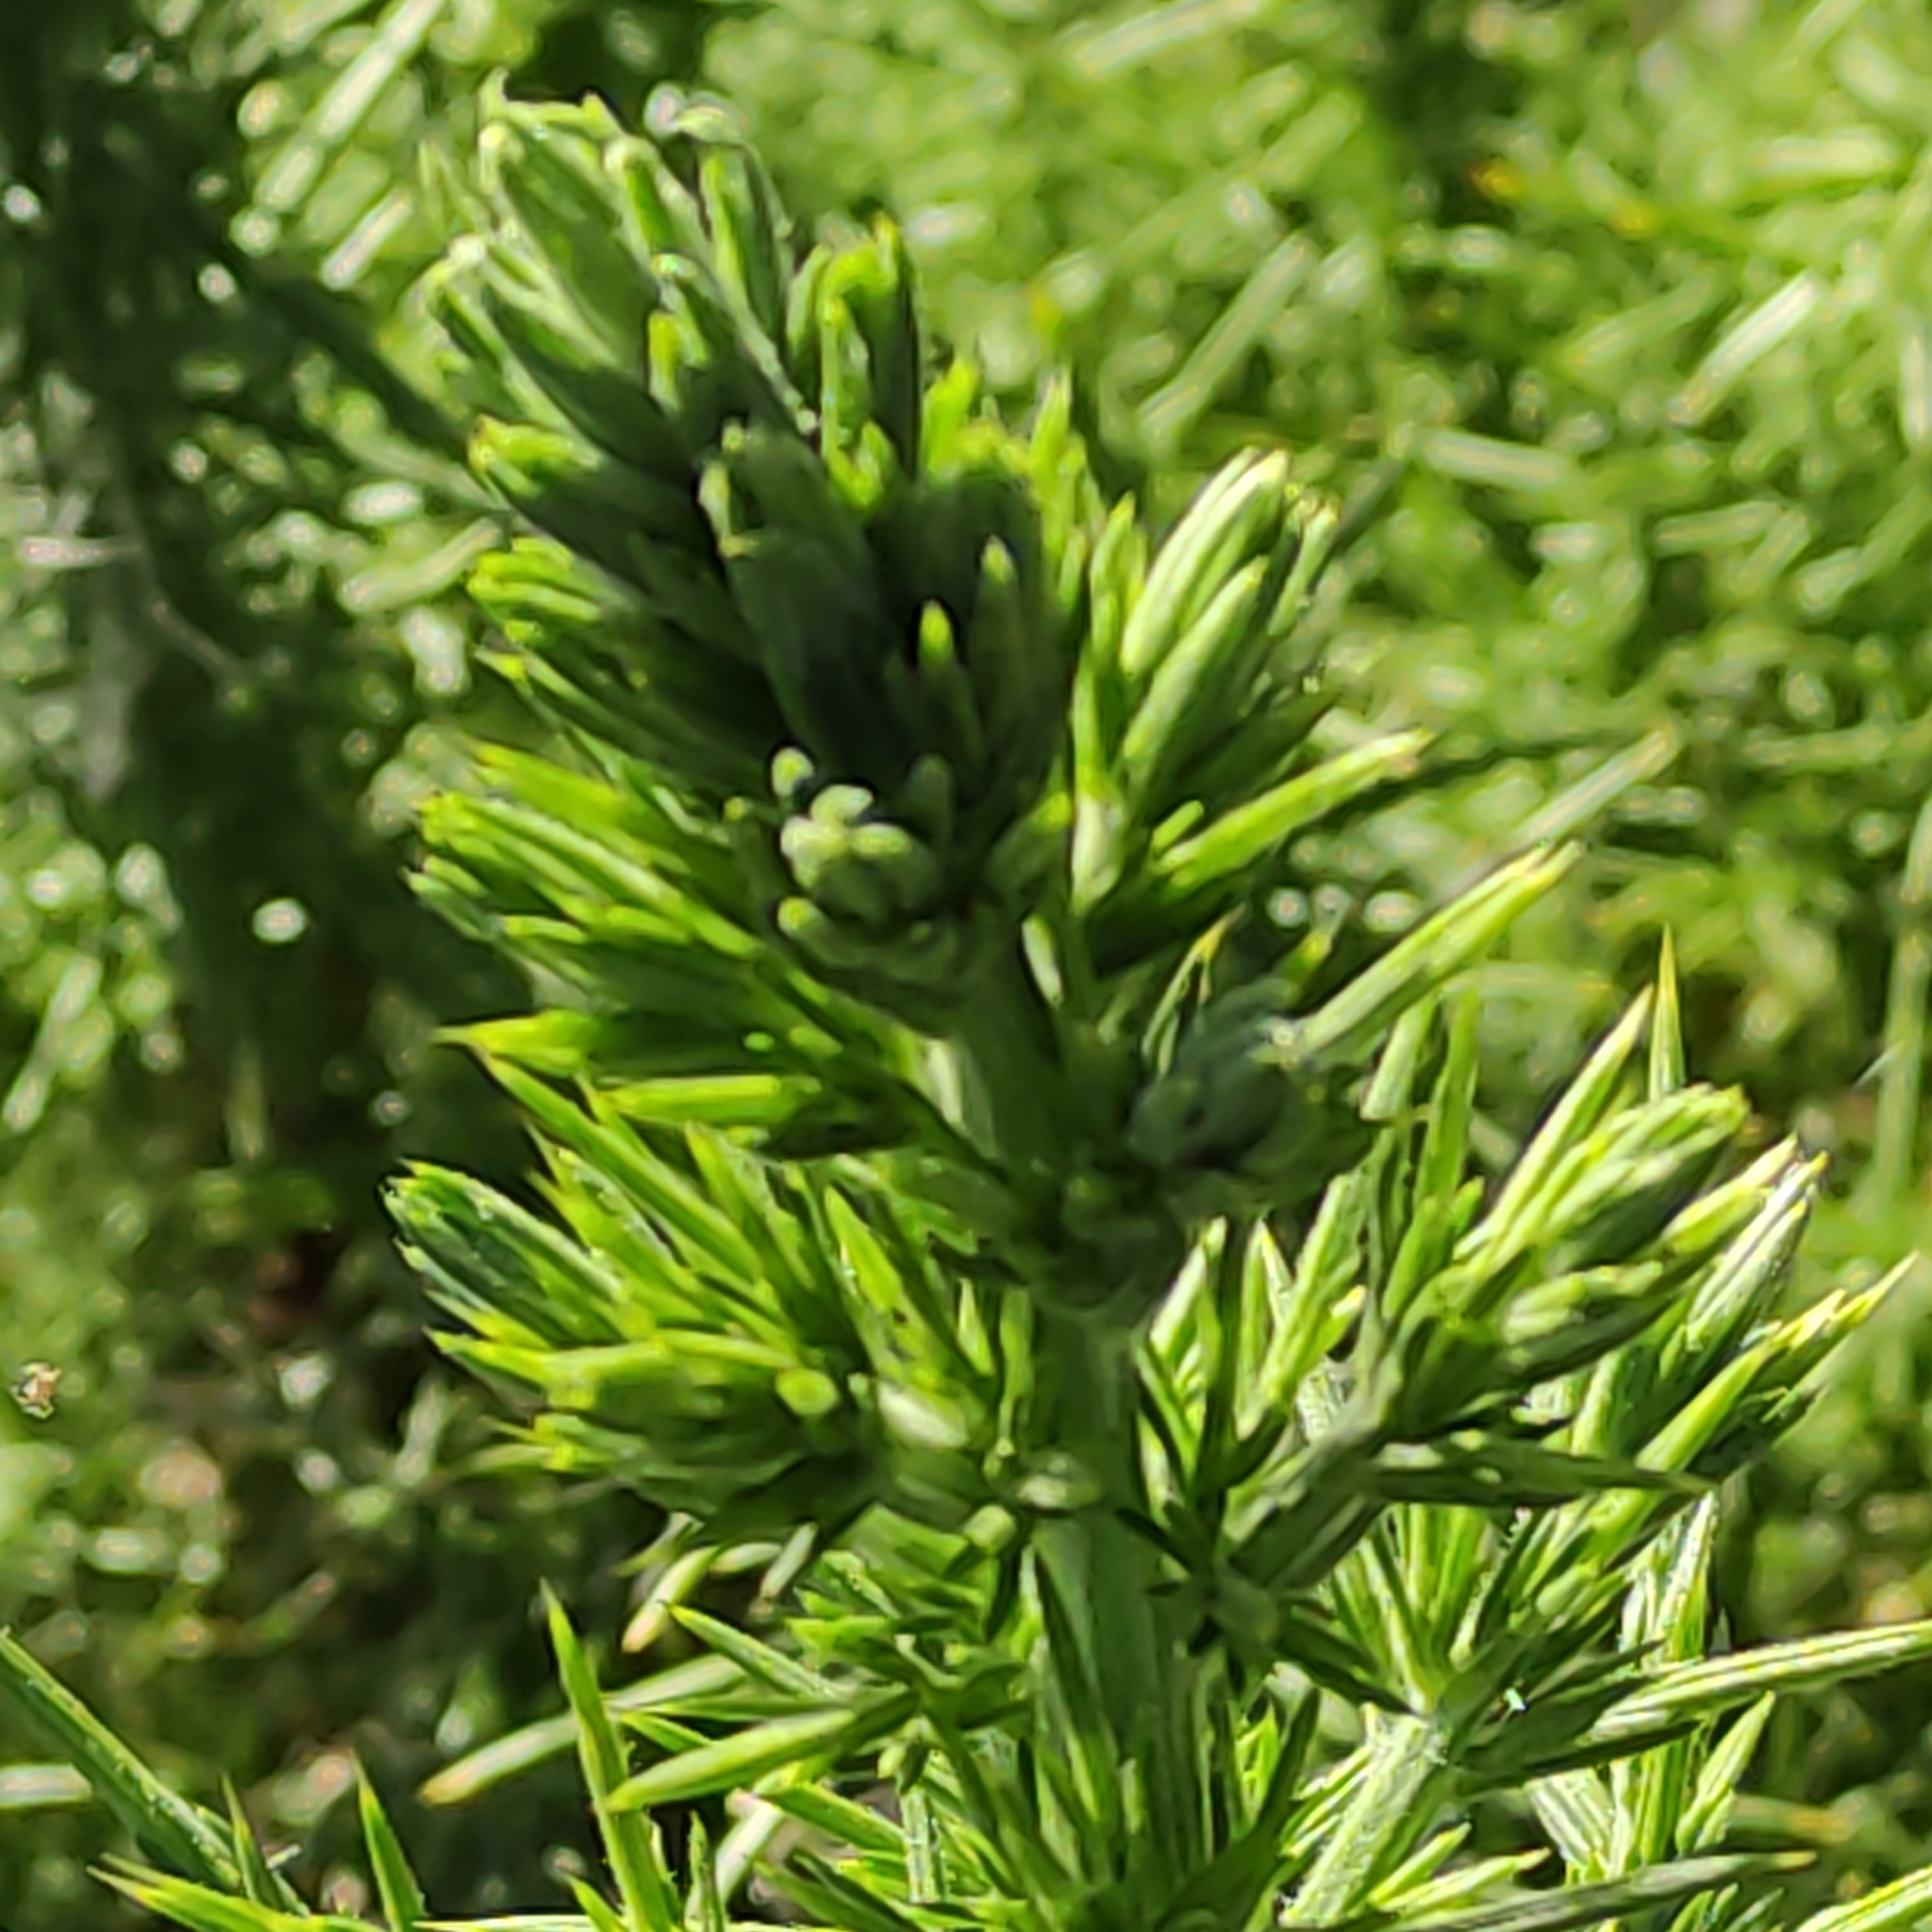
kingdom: Plantae
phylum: Tracheophyta
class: Magnoliopsida
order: Fabales
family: Fabaceae
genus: Ulex
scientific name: Ulex europaeus
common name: Common gorse
